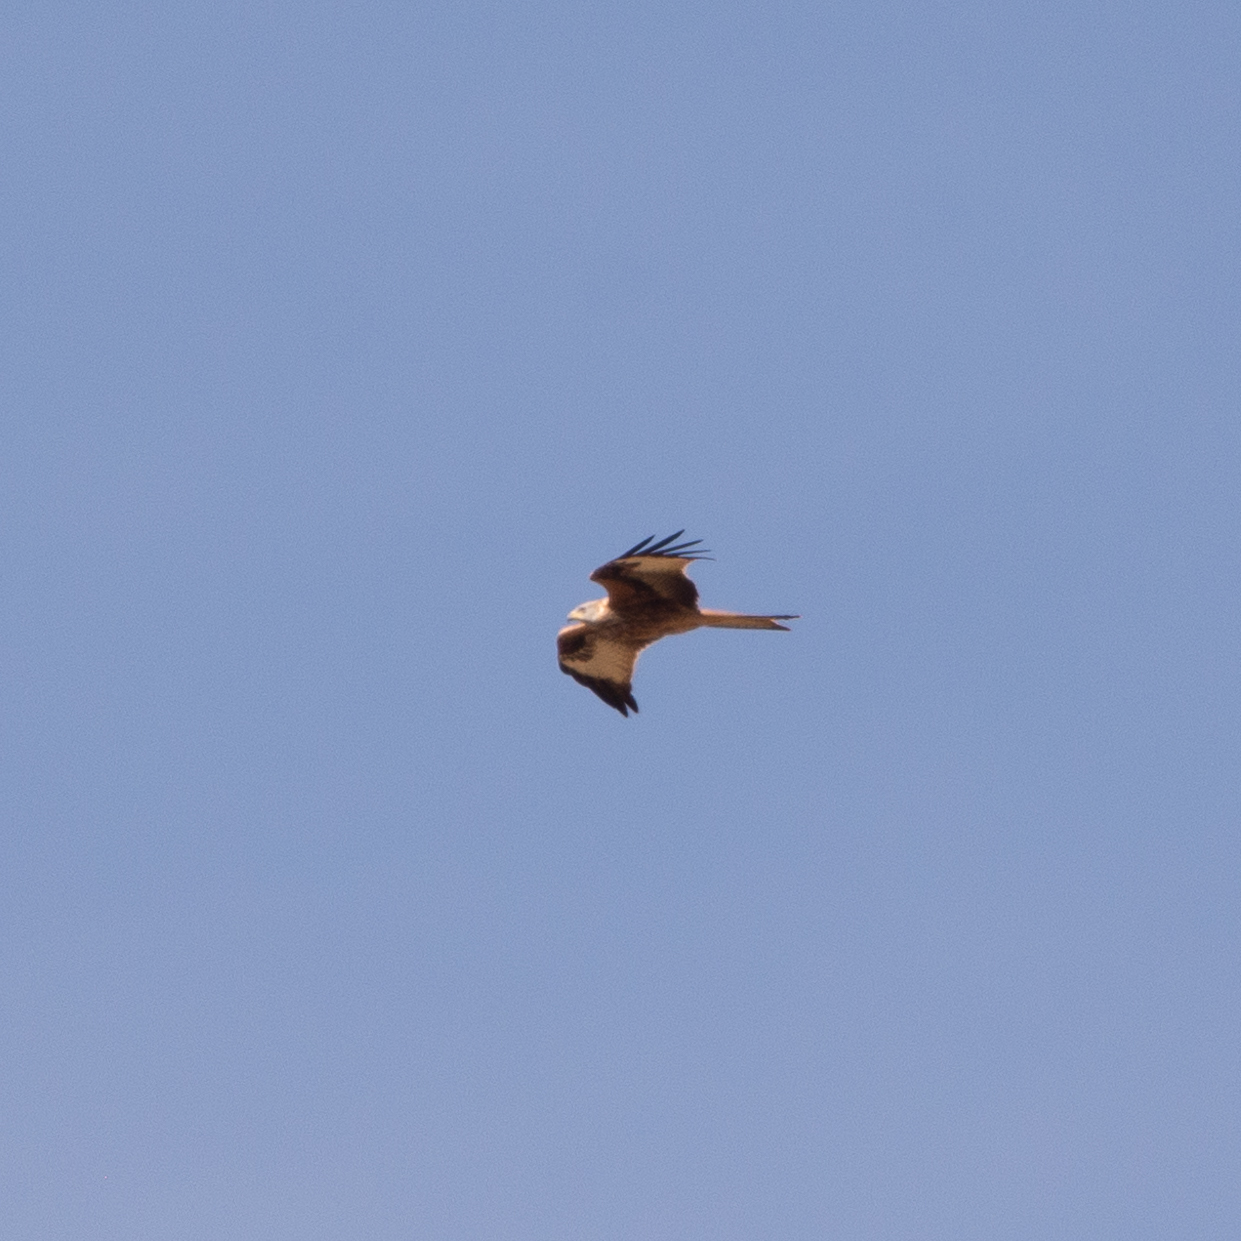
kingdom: Animalia
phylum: Chordata
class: Aves
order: Accipitriformes
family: Accipitridae
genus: Milvus
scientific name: Milvus milvus
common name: Red kite
